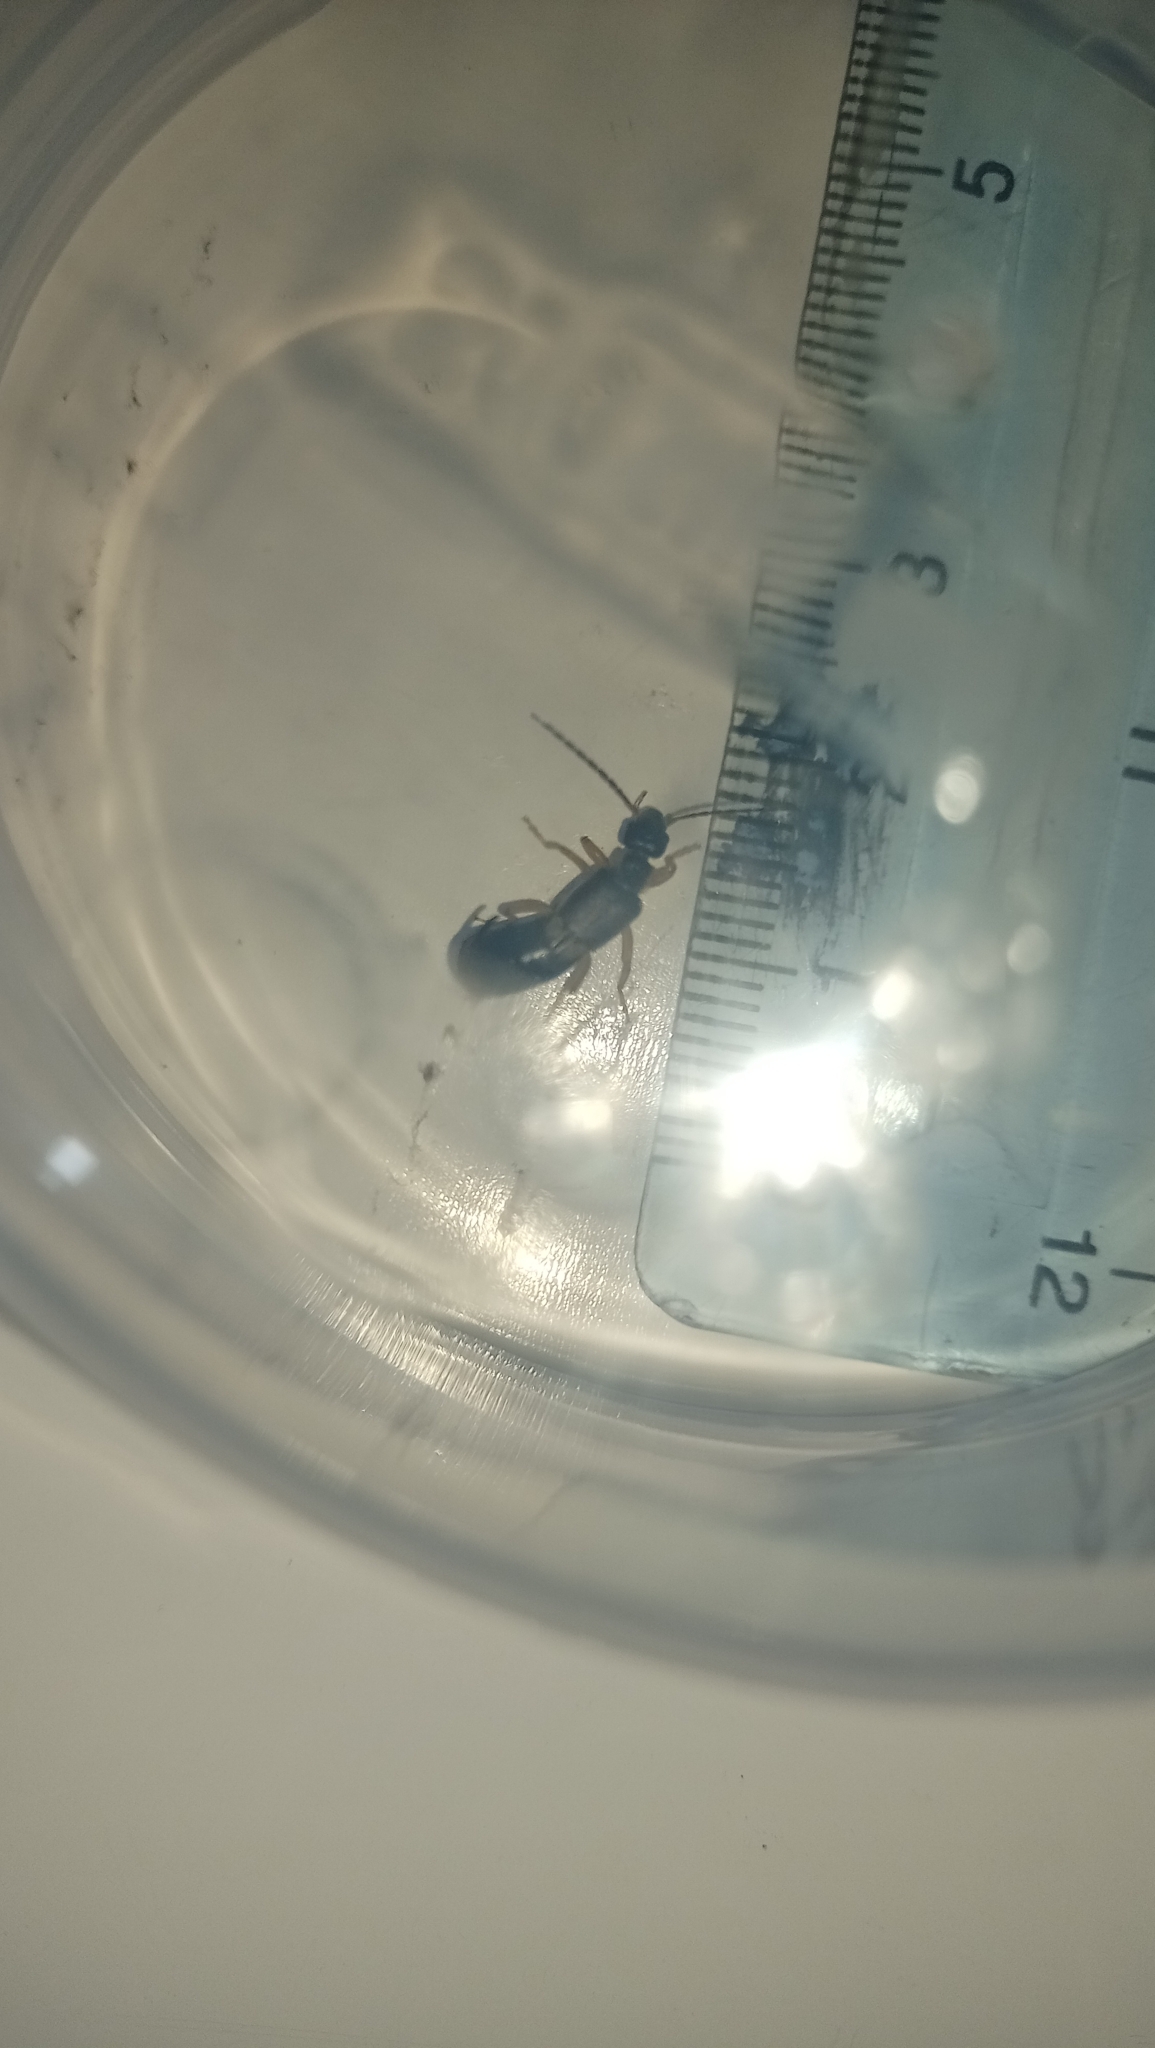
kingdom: Animalia
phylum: Arthropoda
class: Insecta
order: Dermaptera
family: Forficulidae
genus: Forficula
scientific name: Forficula lurida
